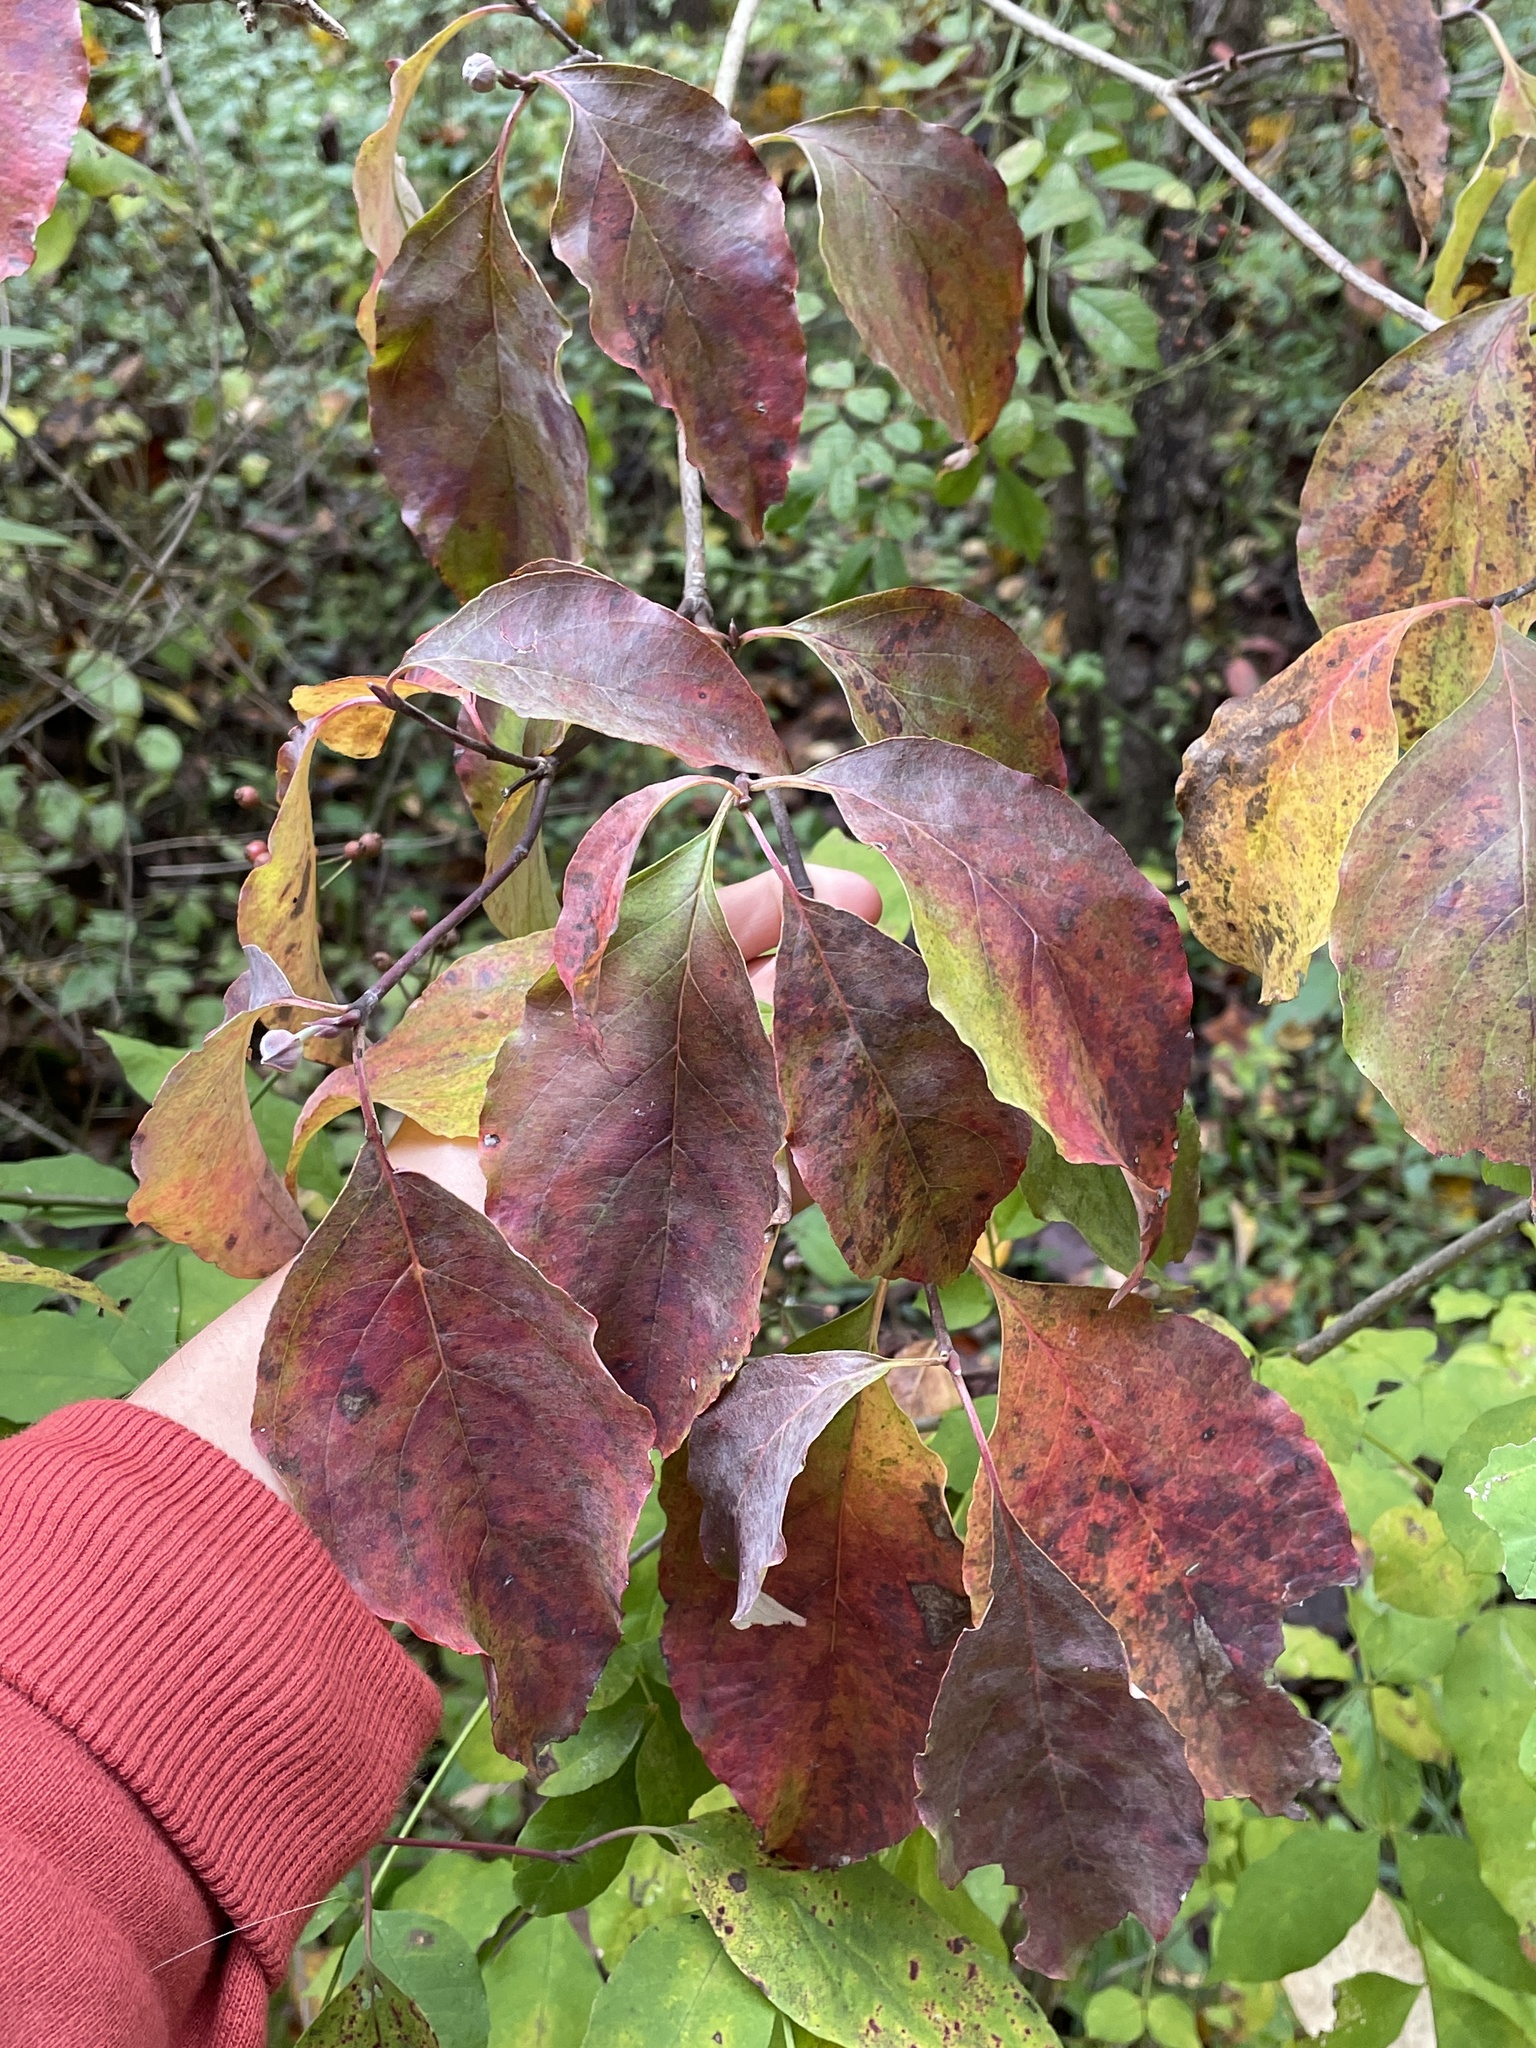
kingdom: Plantae
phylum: Tracheophyta
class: Magnoliopsida
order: Cornales
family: Cornaceae
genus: Cornus
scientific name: Cornus florida
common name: Flowering dogwood
